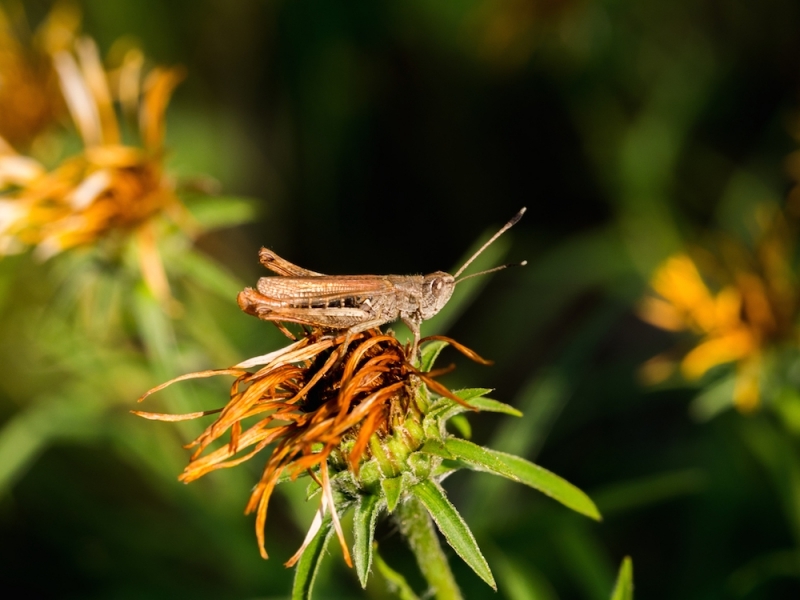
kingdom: Animalia
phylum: Arthropoda
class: Insecta
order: Orthoptera
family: Acrididae
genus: Gomphocerippus
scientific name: Gomphocerippus rufus
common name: Rufous grasshopper
